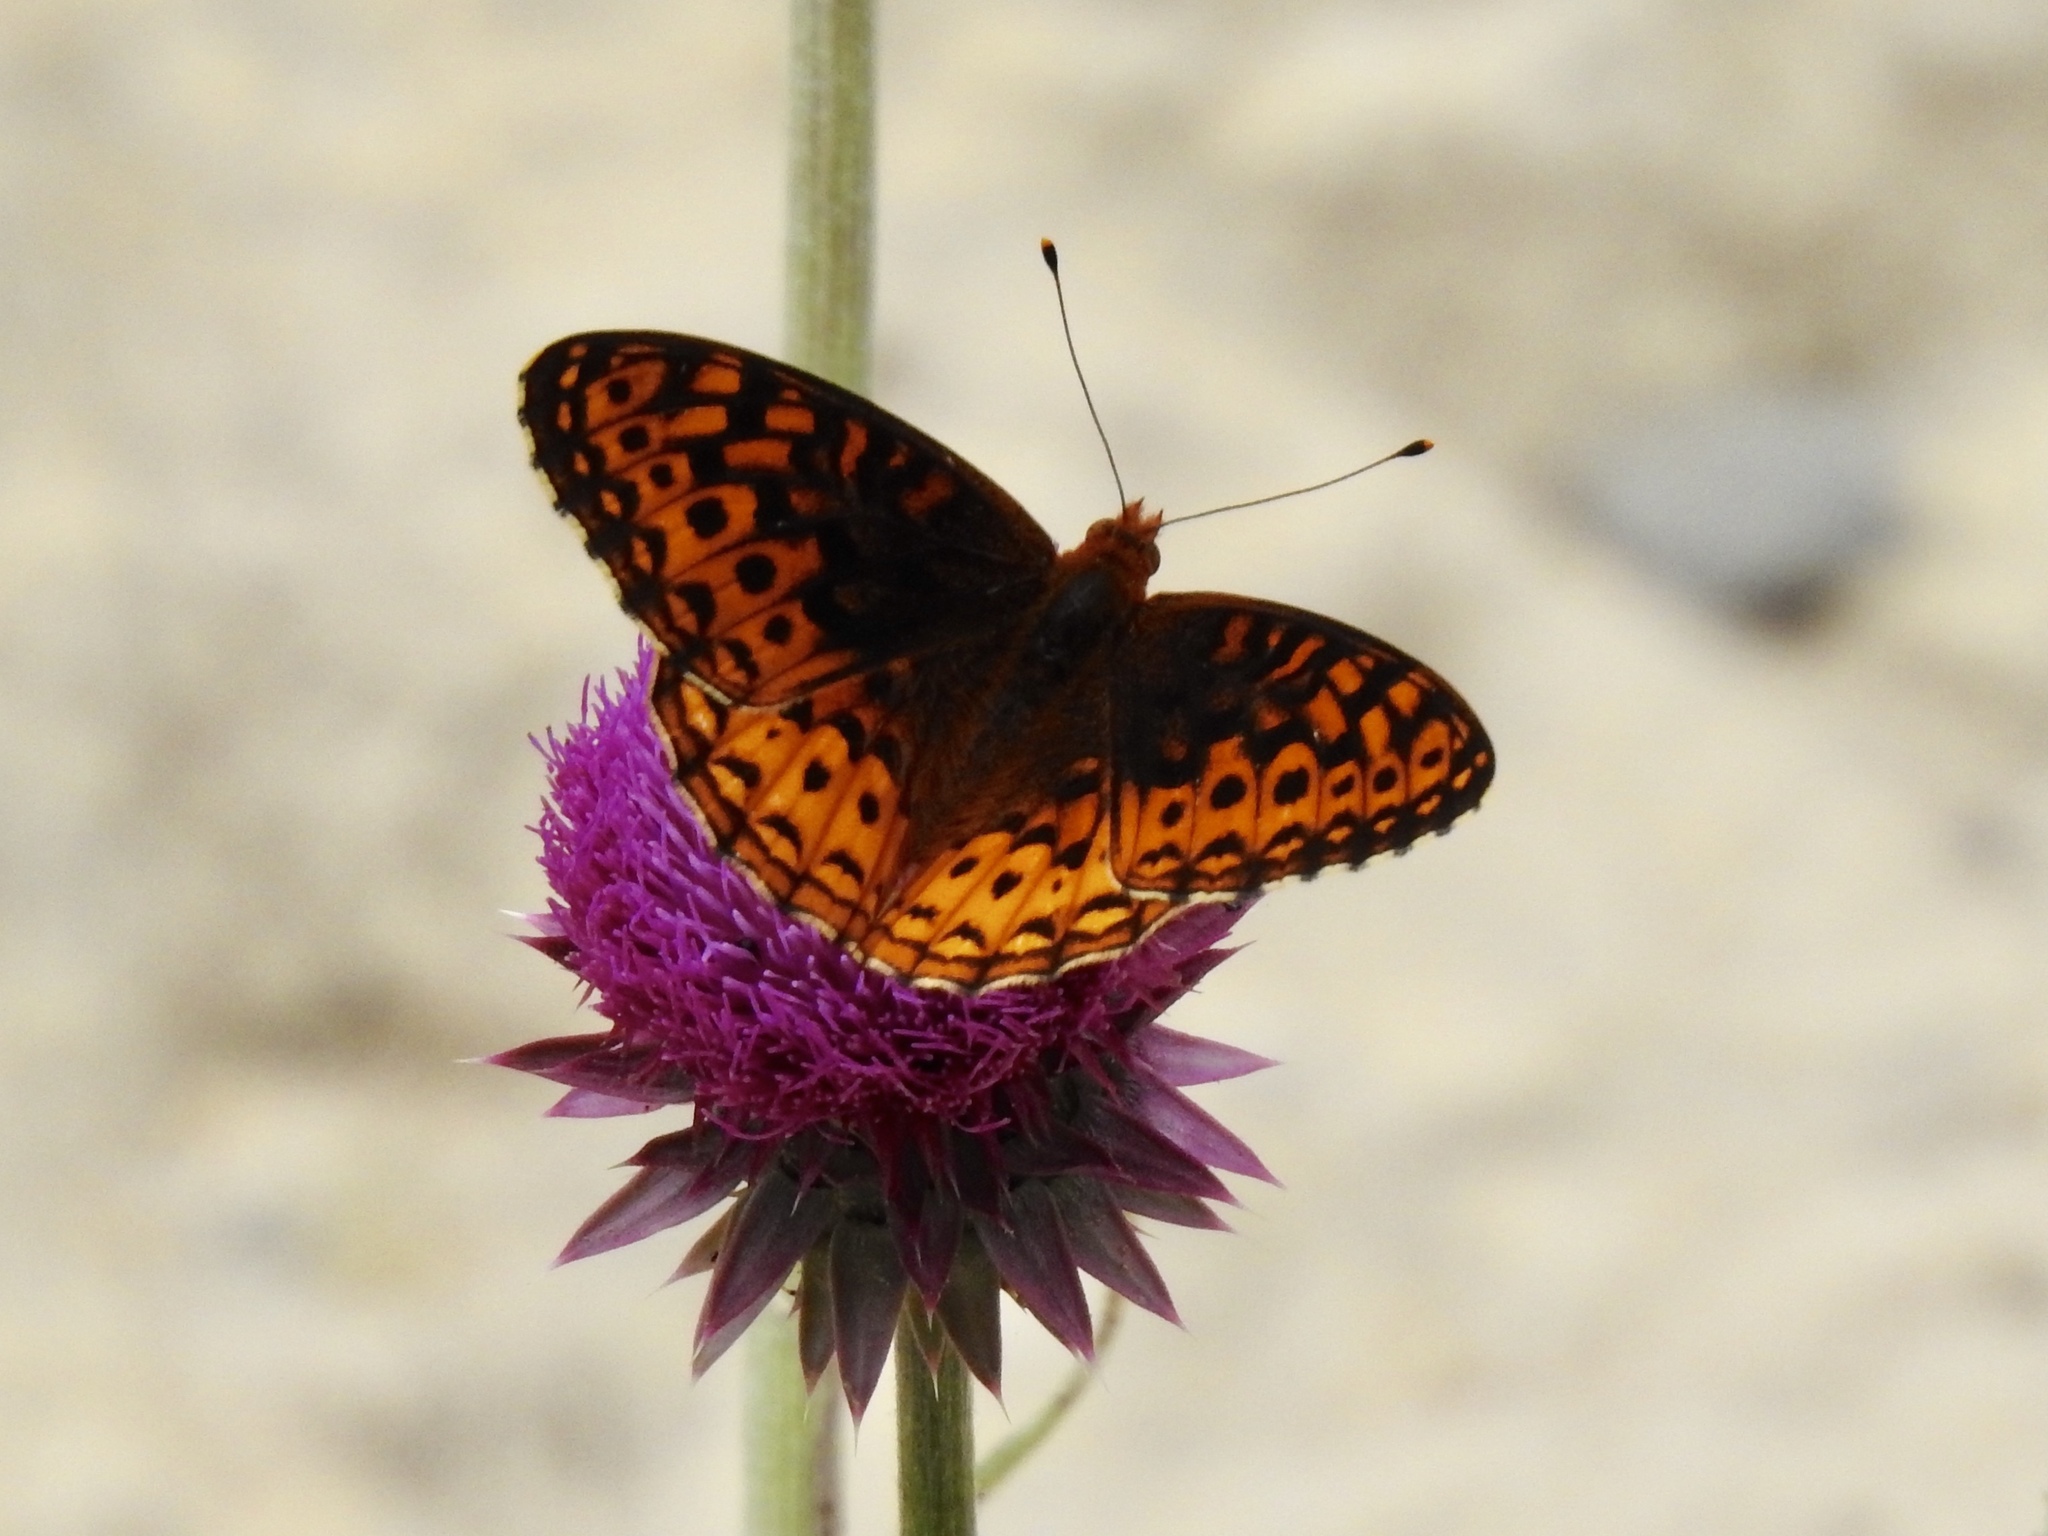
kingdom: Animalia
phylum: Arthropoda
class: Insecta
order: Lepidoptera
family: Nymphalidae
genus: Speyeria
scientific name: Speyeria atlantis
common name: Atlantis fritillary
